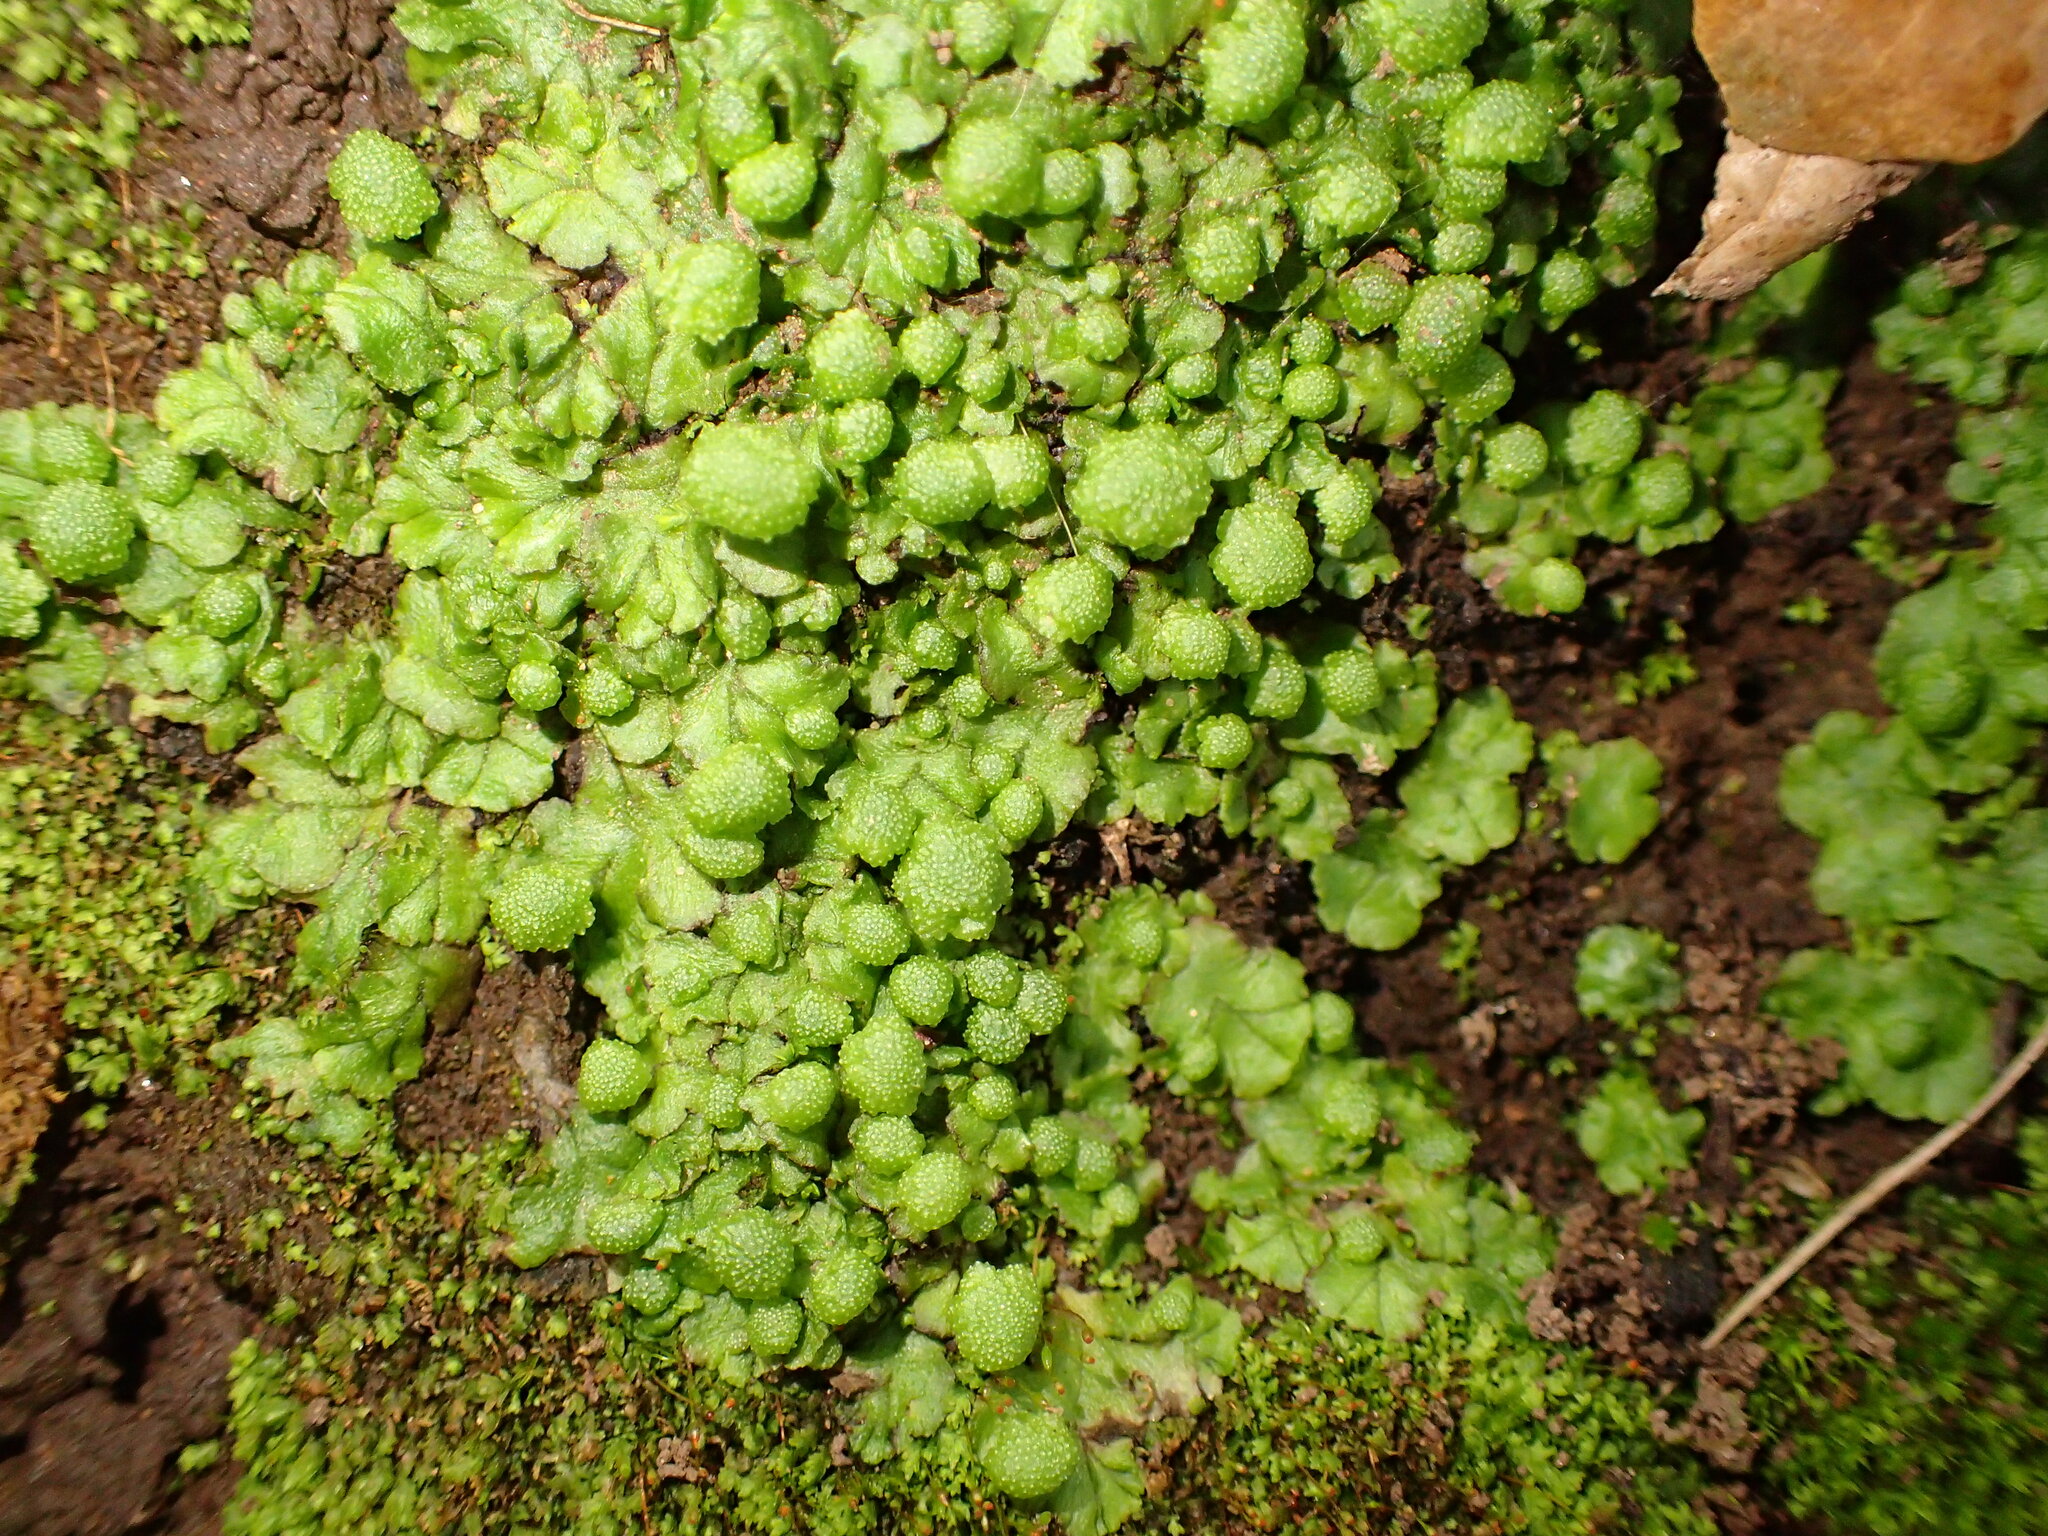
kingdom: Plantae
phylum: Marchantiophyta
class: Marchantiopsida
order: Marchantiales
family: Aytoniaceae
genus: Cryptomitrium
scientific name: Cryptomitrium tenerum
